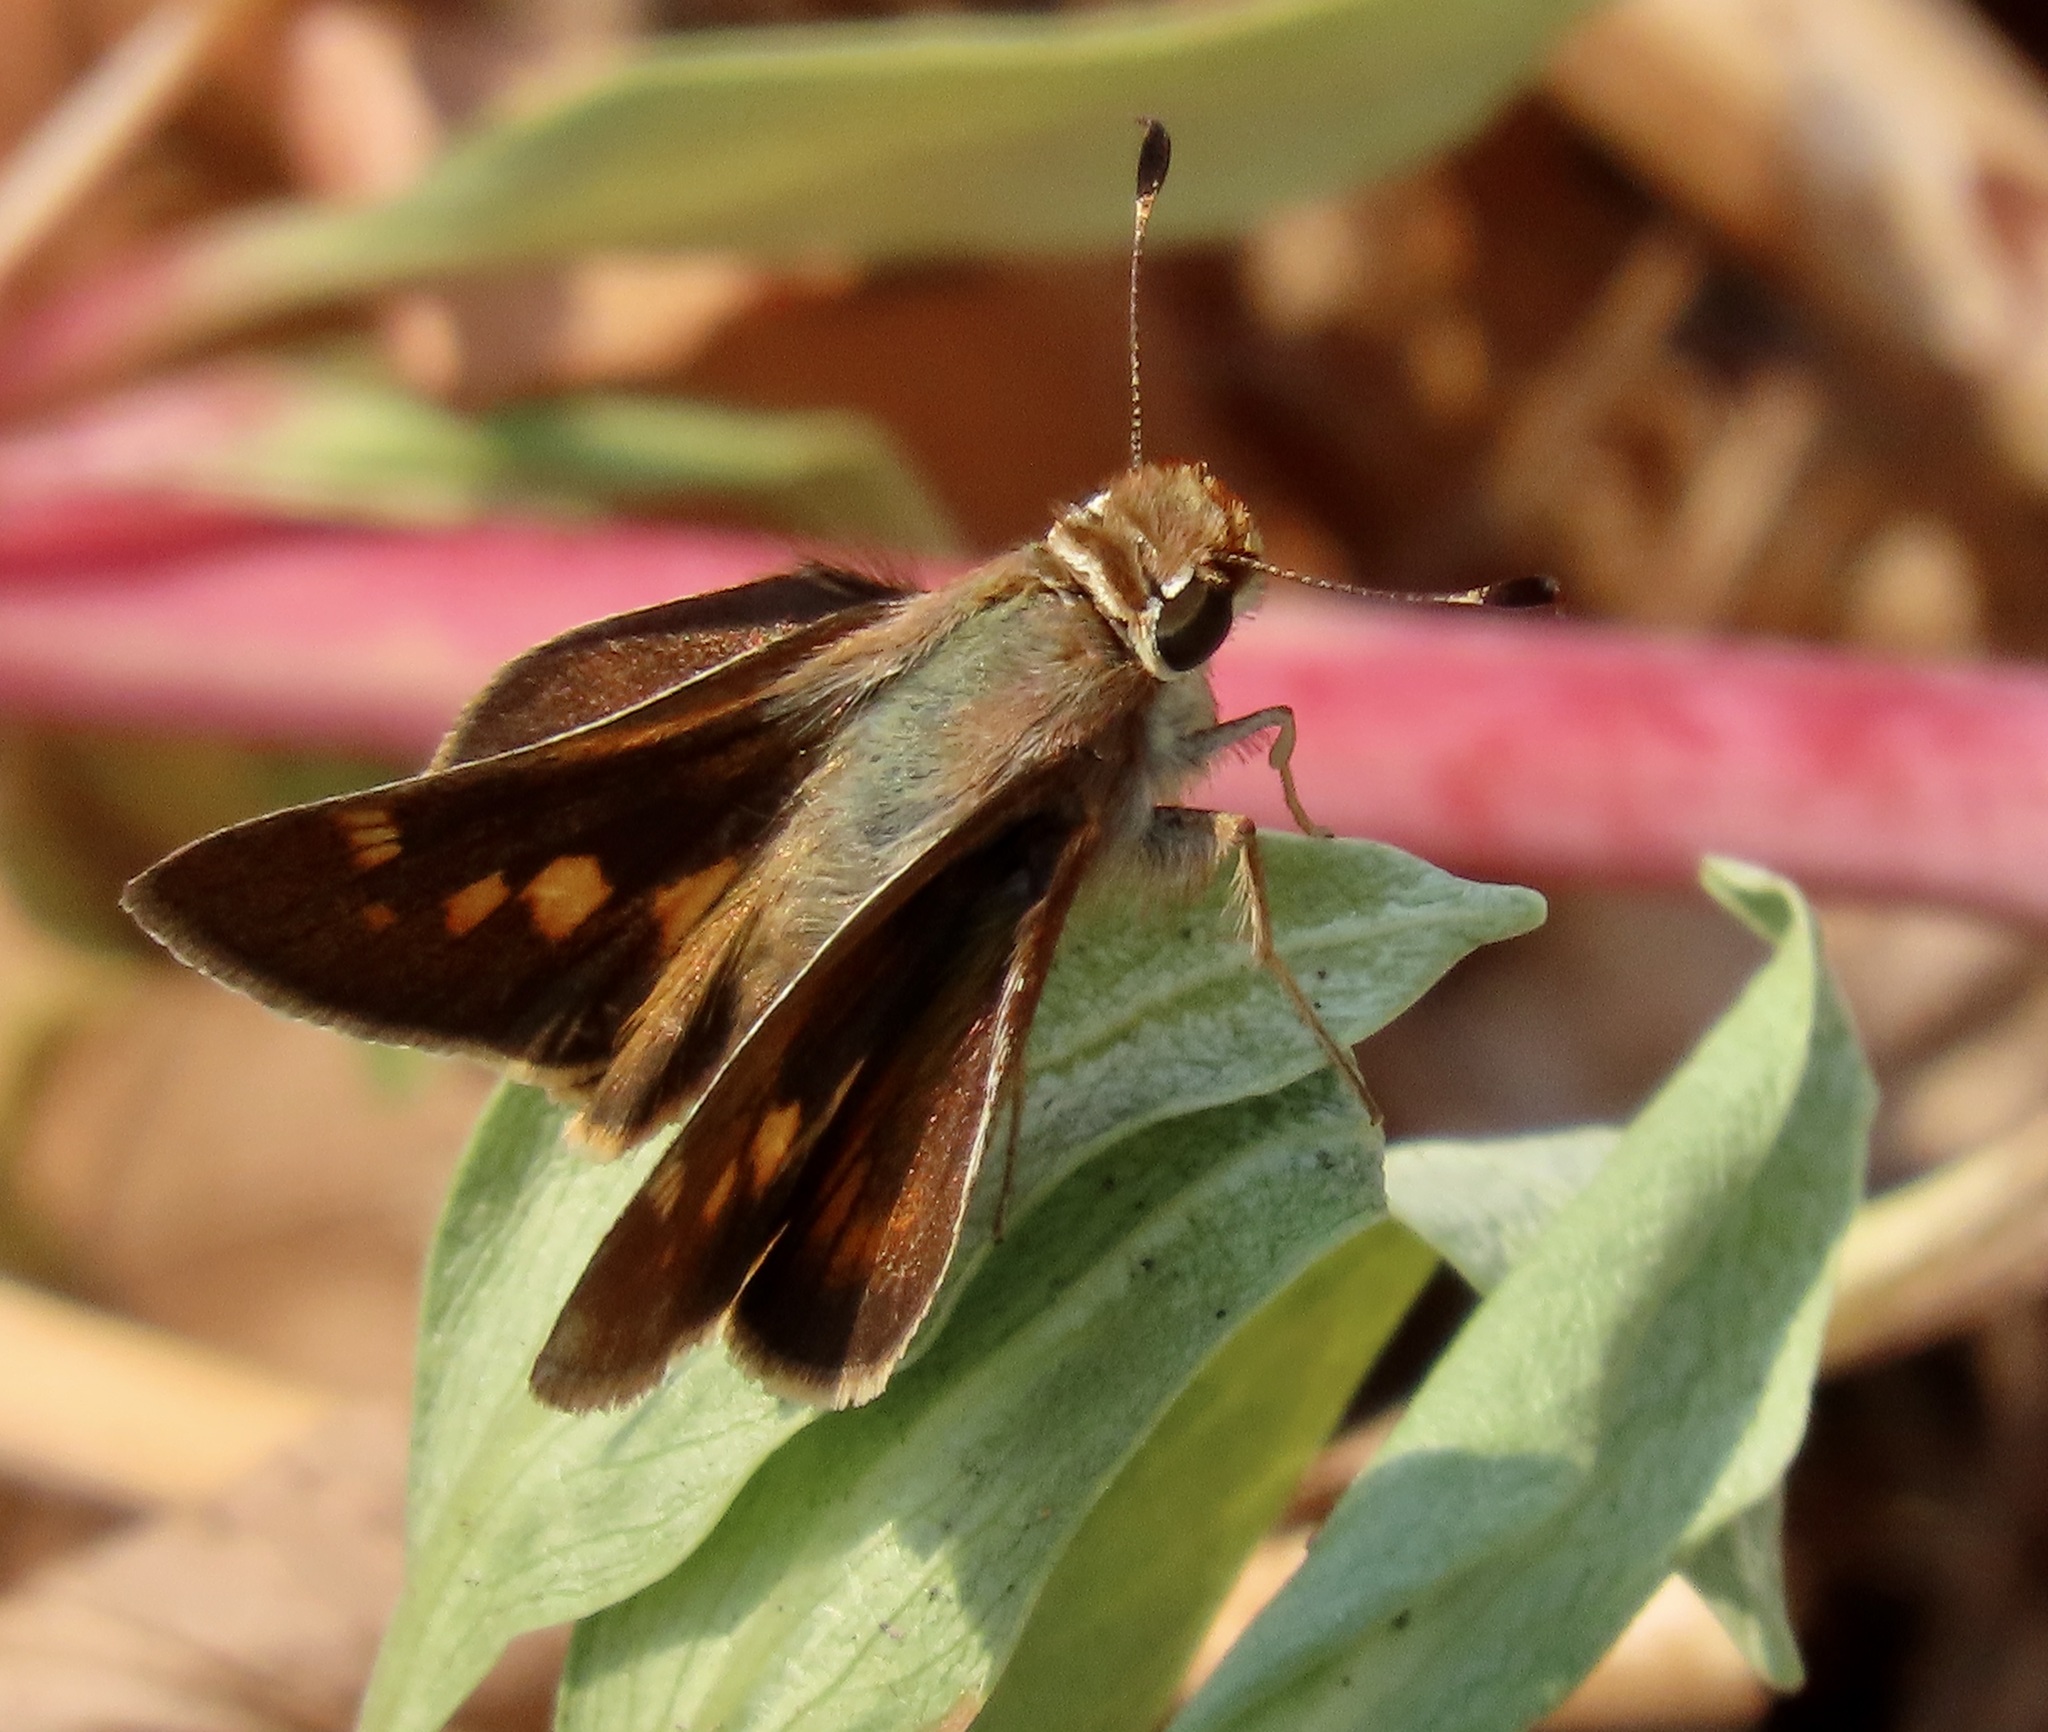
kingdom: Animalia
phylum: Arthropoda
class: Insecta
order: Lepidoptera
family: Hesperiidae
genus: Lon
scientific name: Lon melane
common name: Umber skipper
